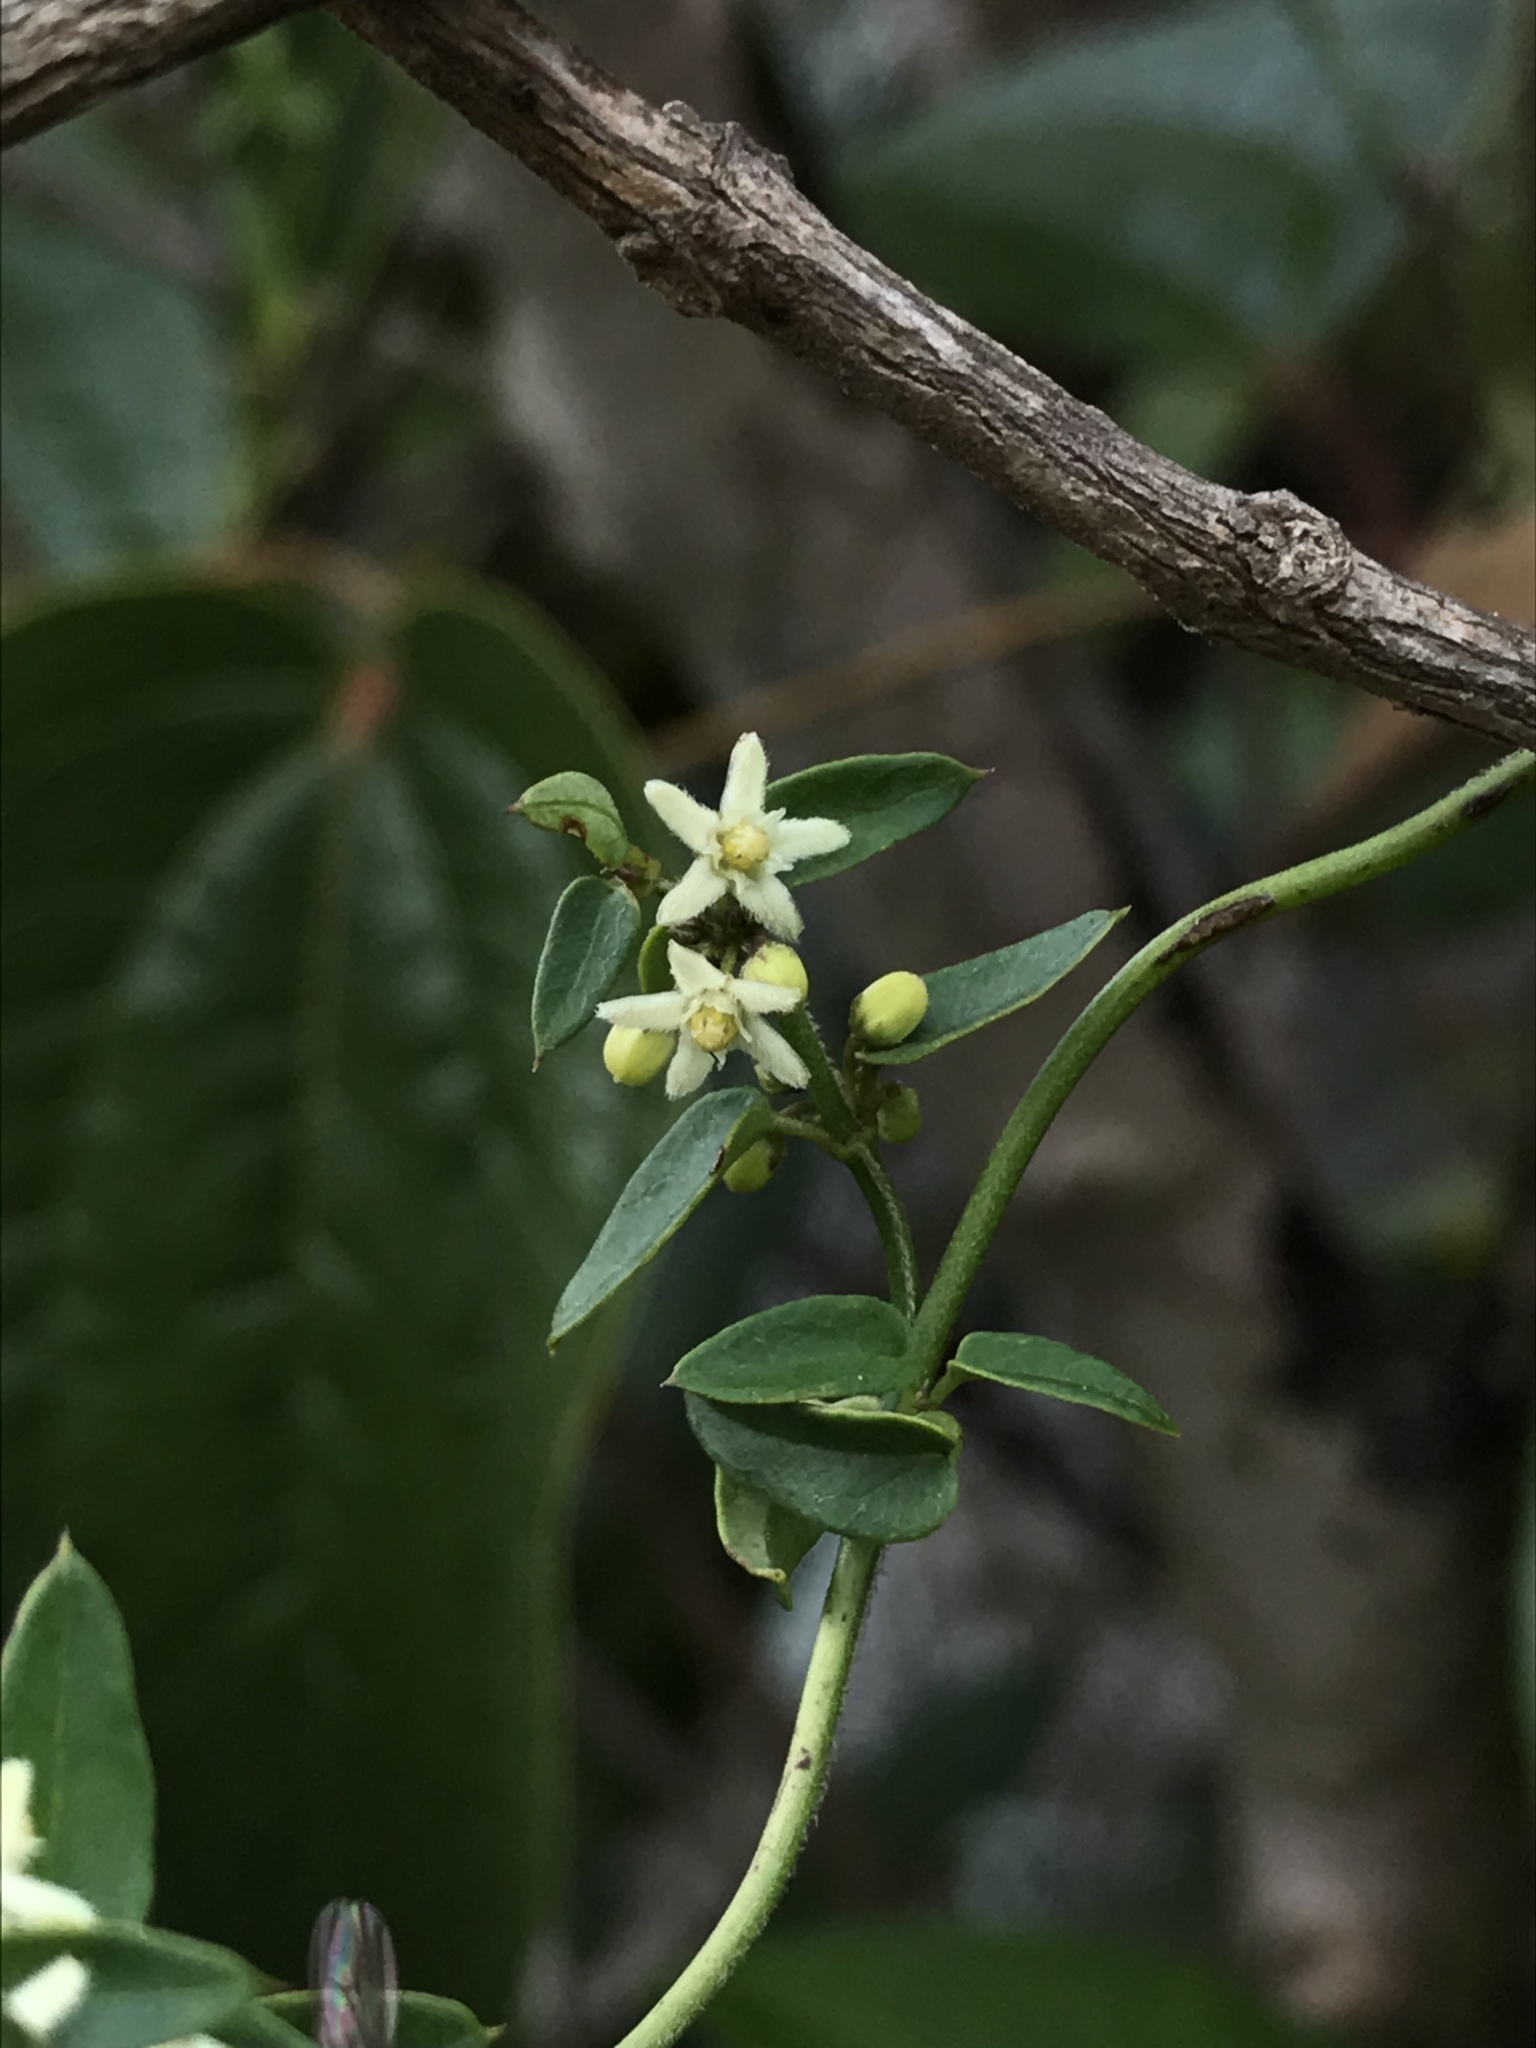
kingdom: Plantae
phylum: Tracheophyta
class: Magnoliopsida
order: Gentianales
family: Apocynaceae
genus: Scyphostelma
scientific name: Scyphostelma tenellum
